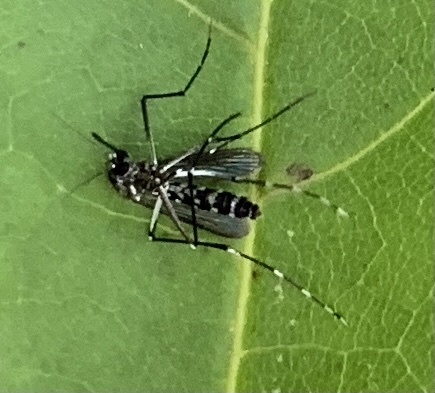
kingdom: Animalia
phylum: Arthropoda
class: Insecta
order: Diptera
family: Culicidae
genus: Aedes
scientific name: Aedes albopictus
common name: Tiger mosquito
